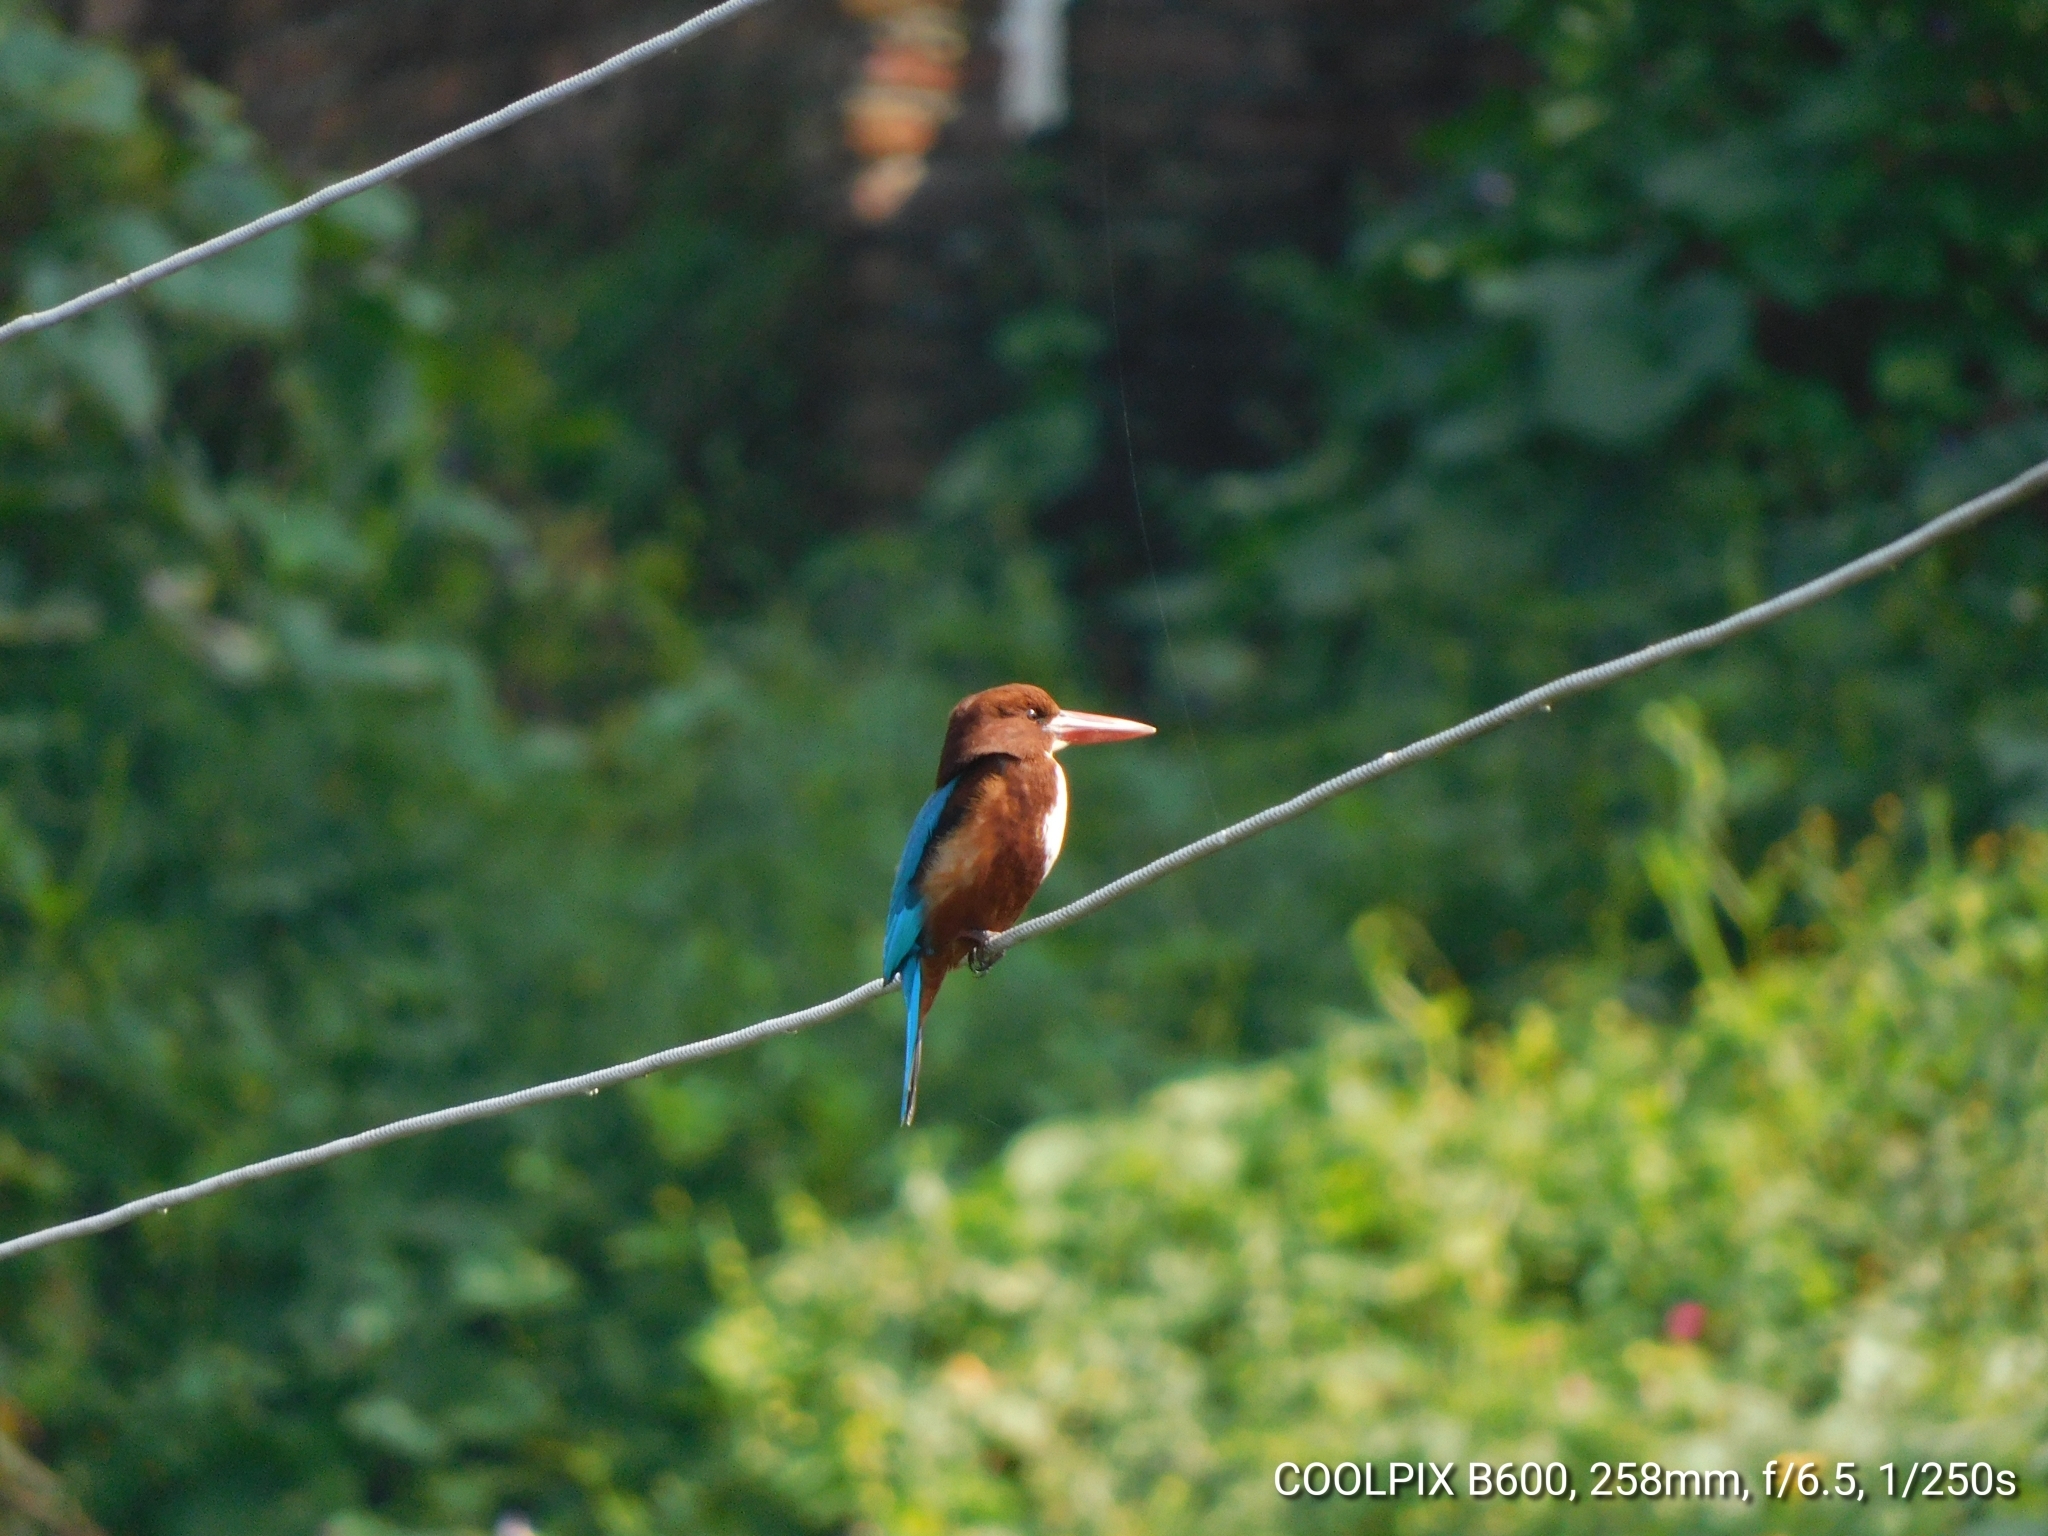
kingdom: Animalia
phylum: Chordata
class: Aves
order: Coraciiformes
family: Alcedinidae
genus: Halcyon
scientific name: Halcyon smyrnensis
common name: White-throated kingfisher
